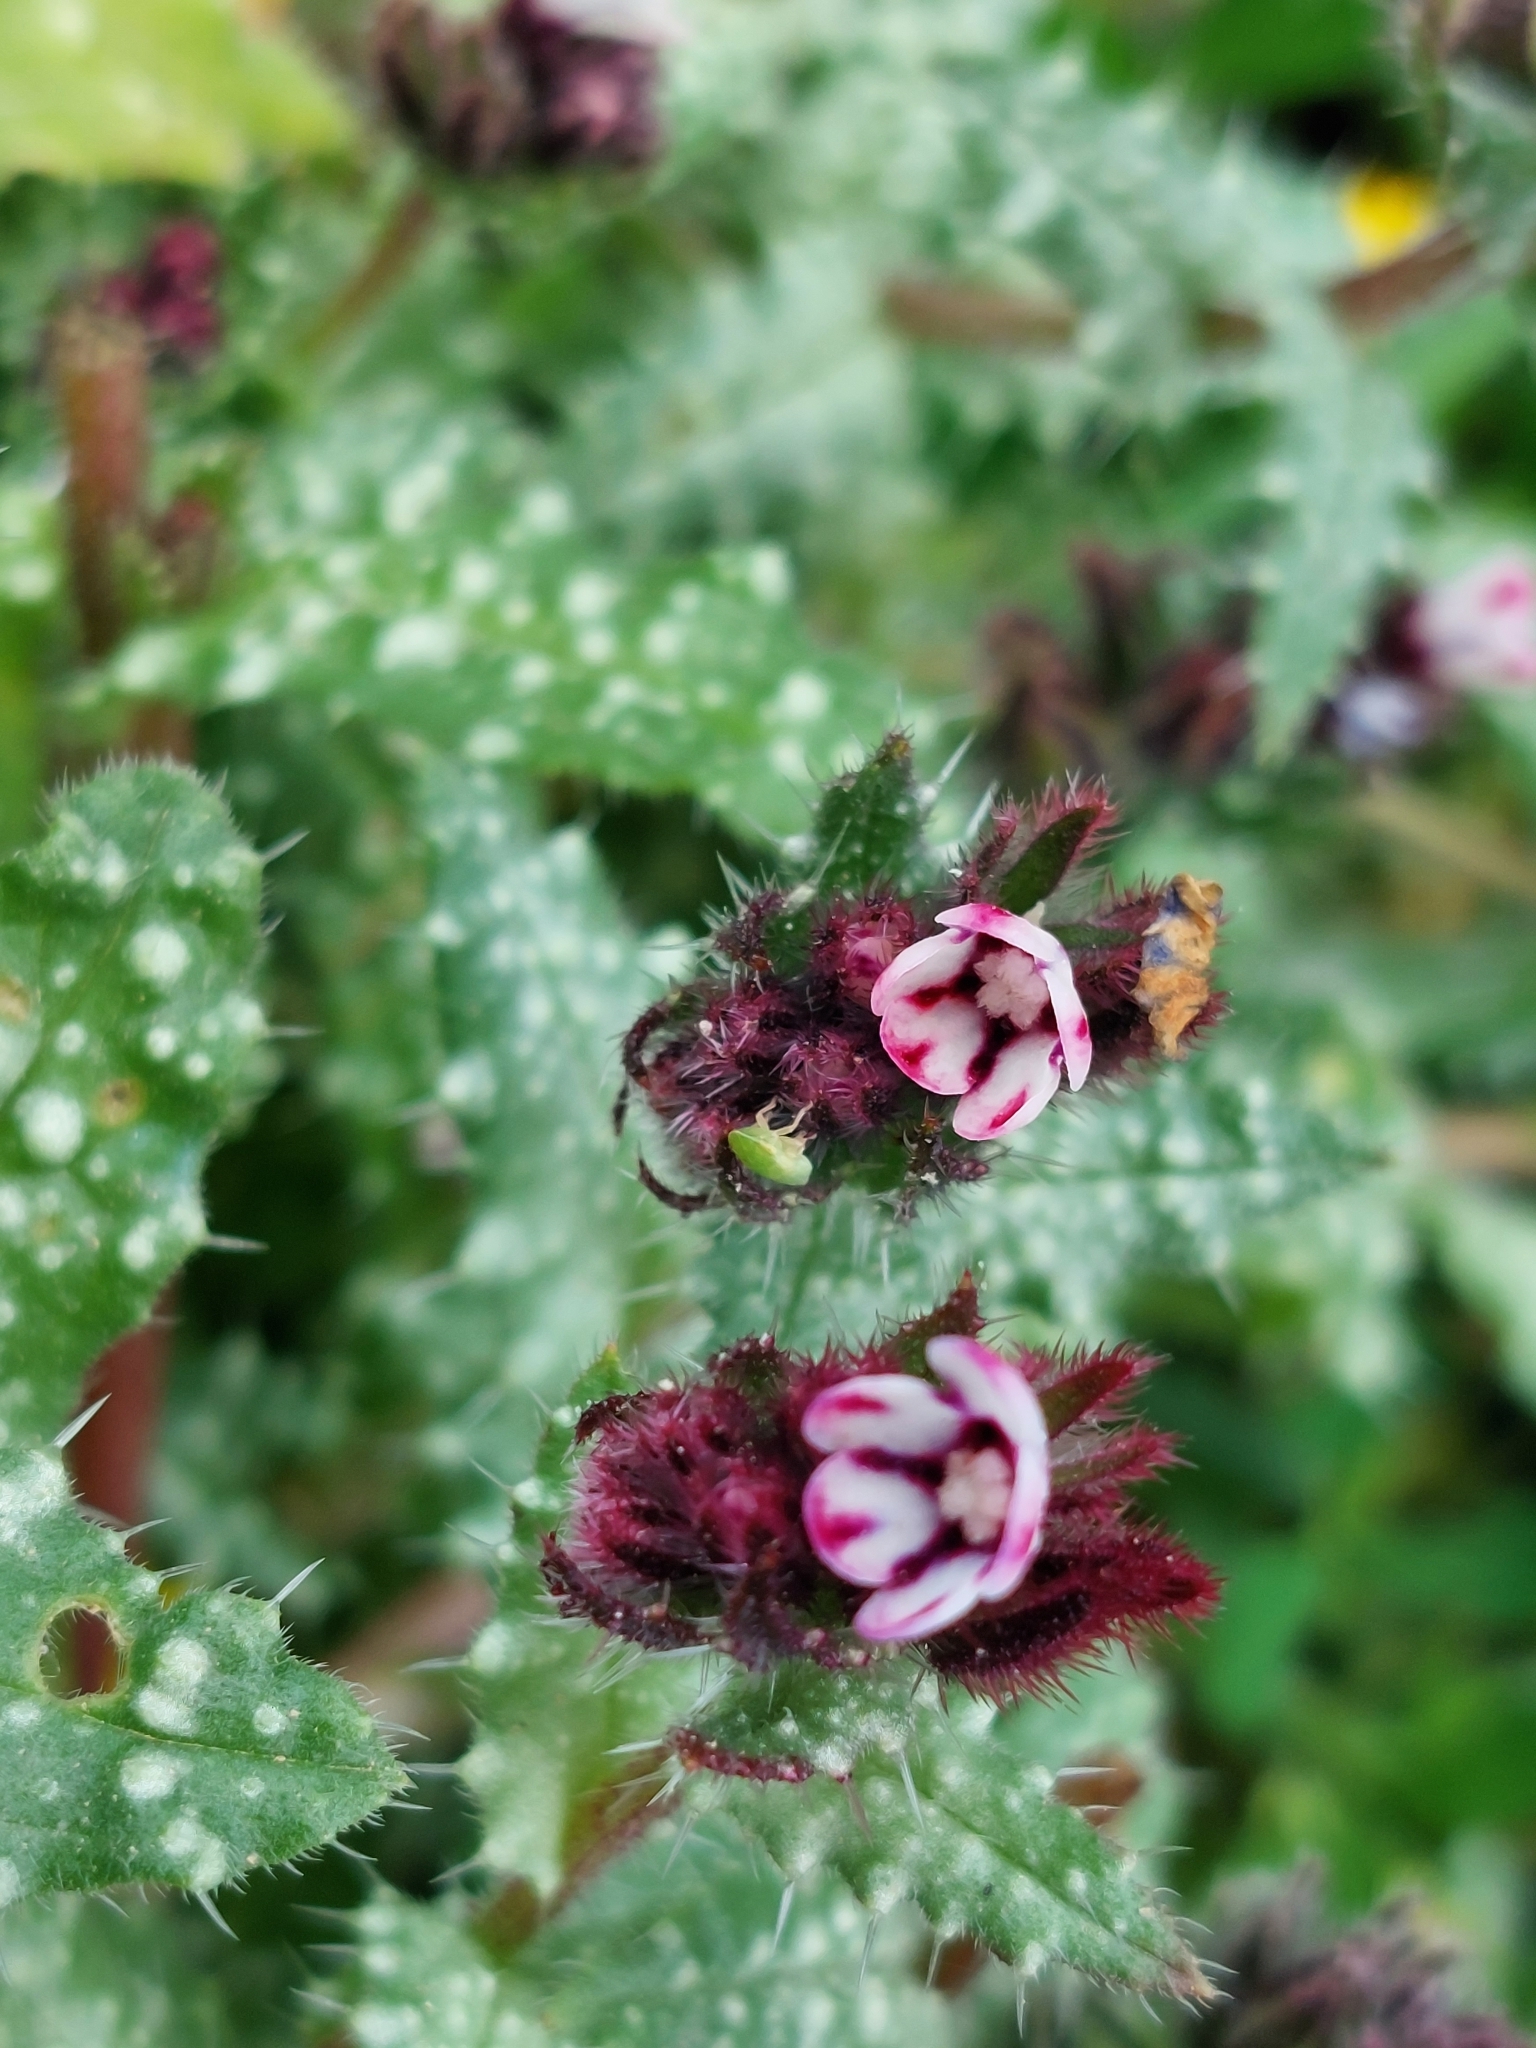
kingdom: Plantae
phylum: Tracheophyta
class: Magnoliopsida
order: Boraginales
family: Boraginaceae
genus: Anchusella
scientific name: Anchusella variegata
